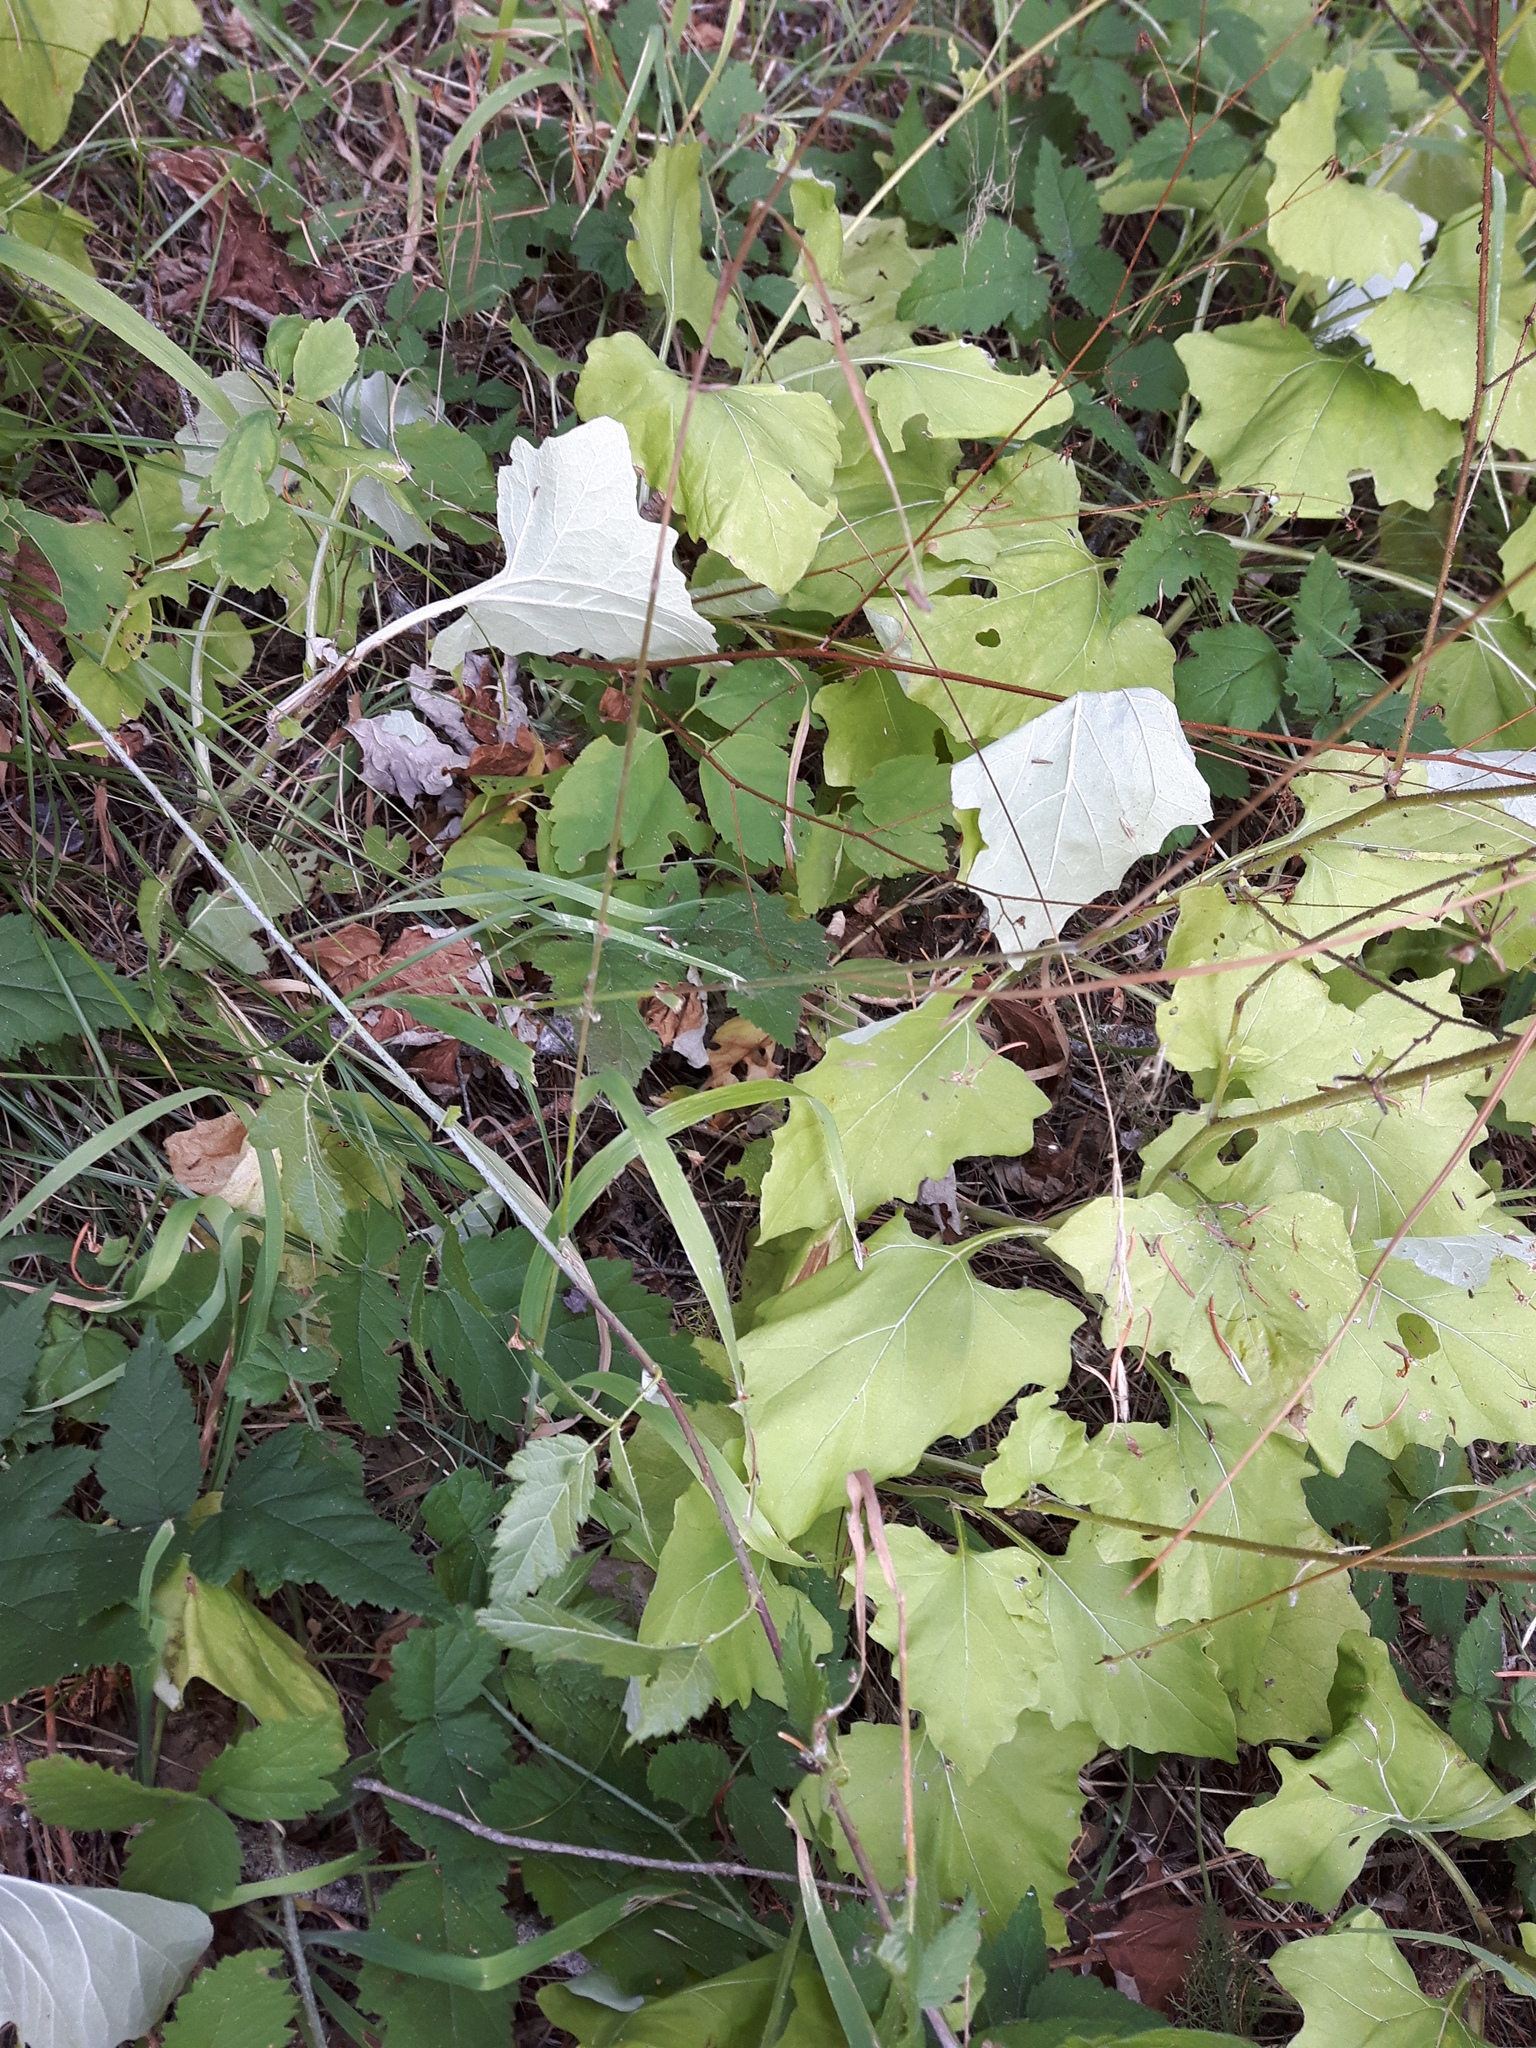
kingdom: Plantae
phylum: Tracheophyta
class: Magnoliopsida
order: Asterales
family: Asteraceae
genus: Adenocaulon
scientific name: Adenocaulon bicolor
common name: Trailplant
